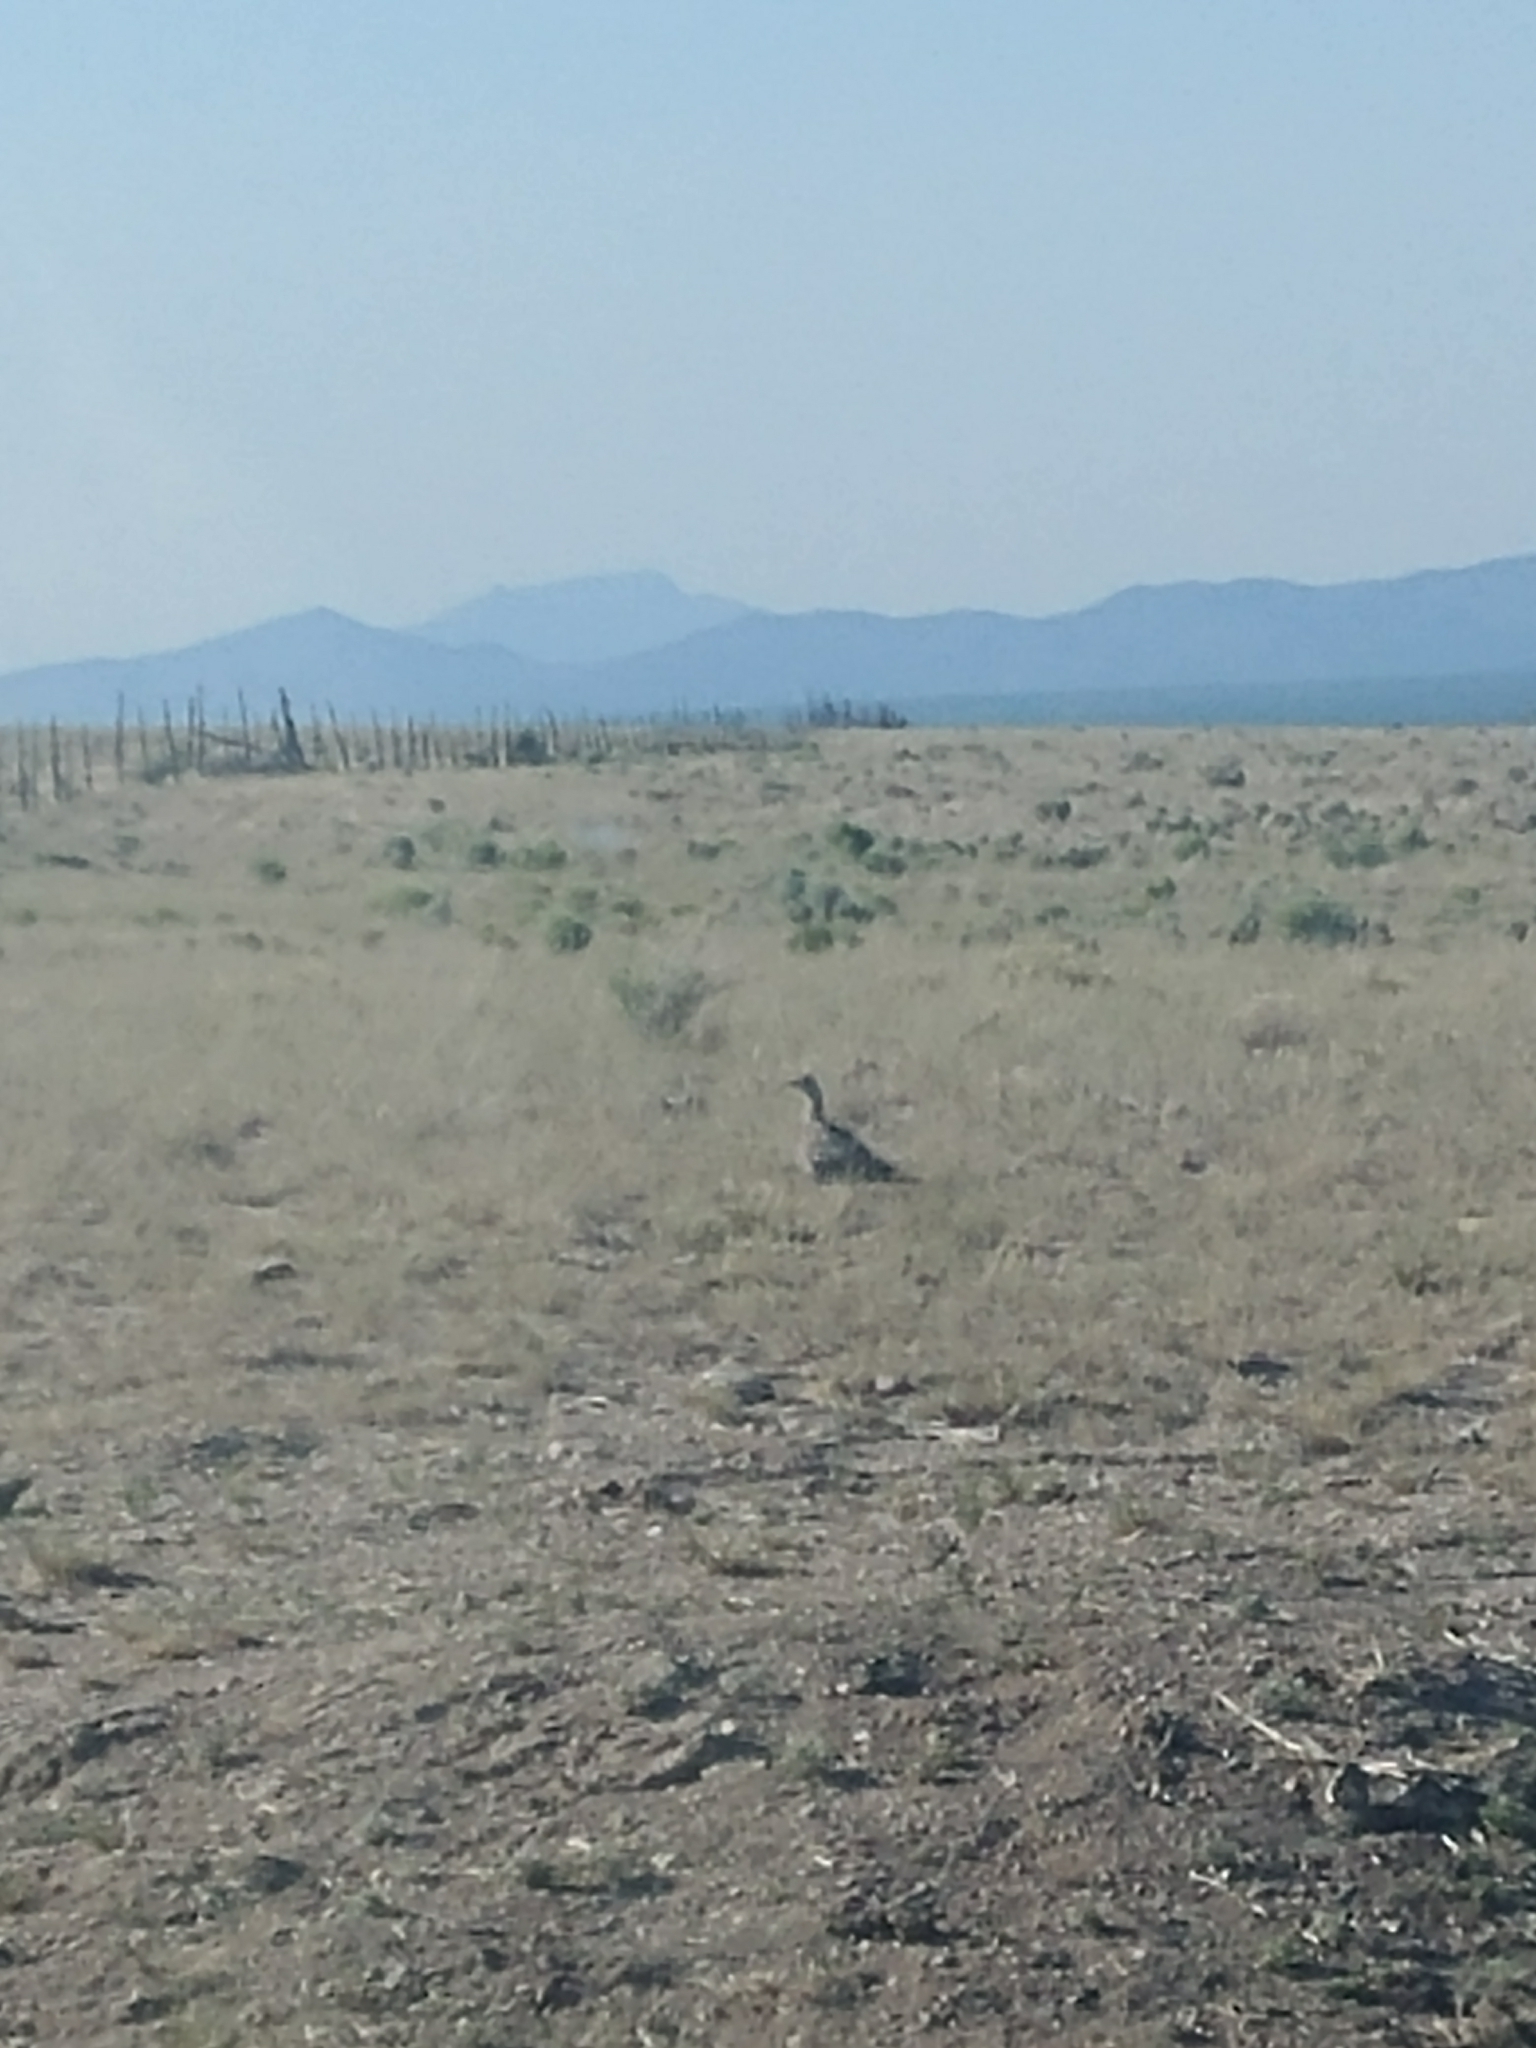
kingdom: Animalia
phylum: Chordata
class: Aves
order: Galliformes
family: Phasianidae
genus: Centrocercus
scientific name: Centrocercus urophasianus
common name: Sage grouse
